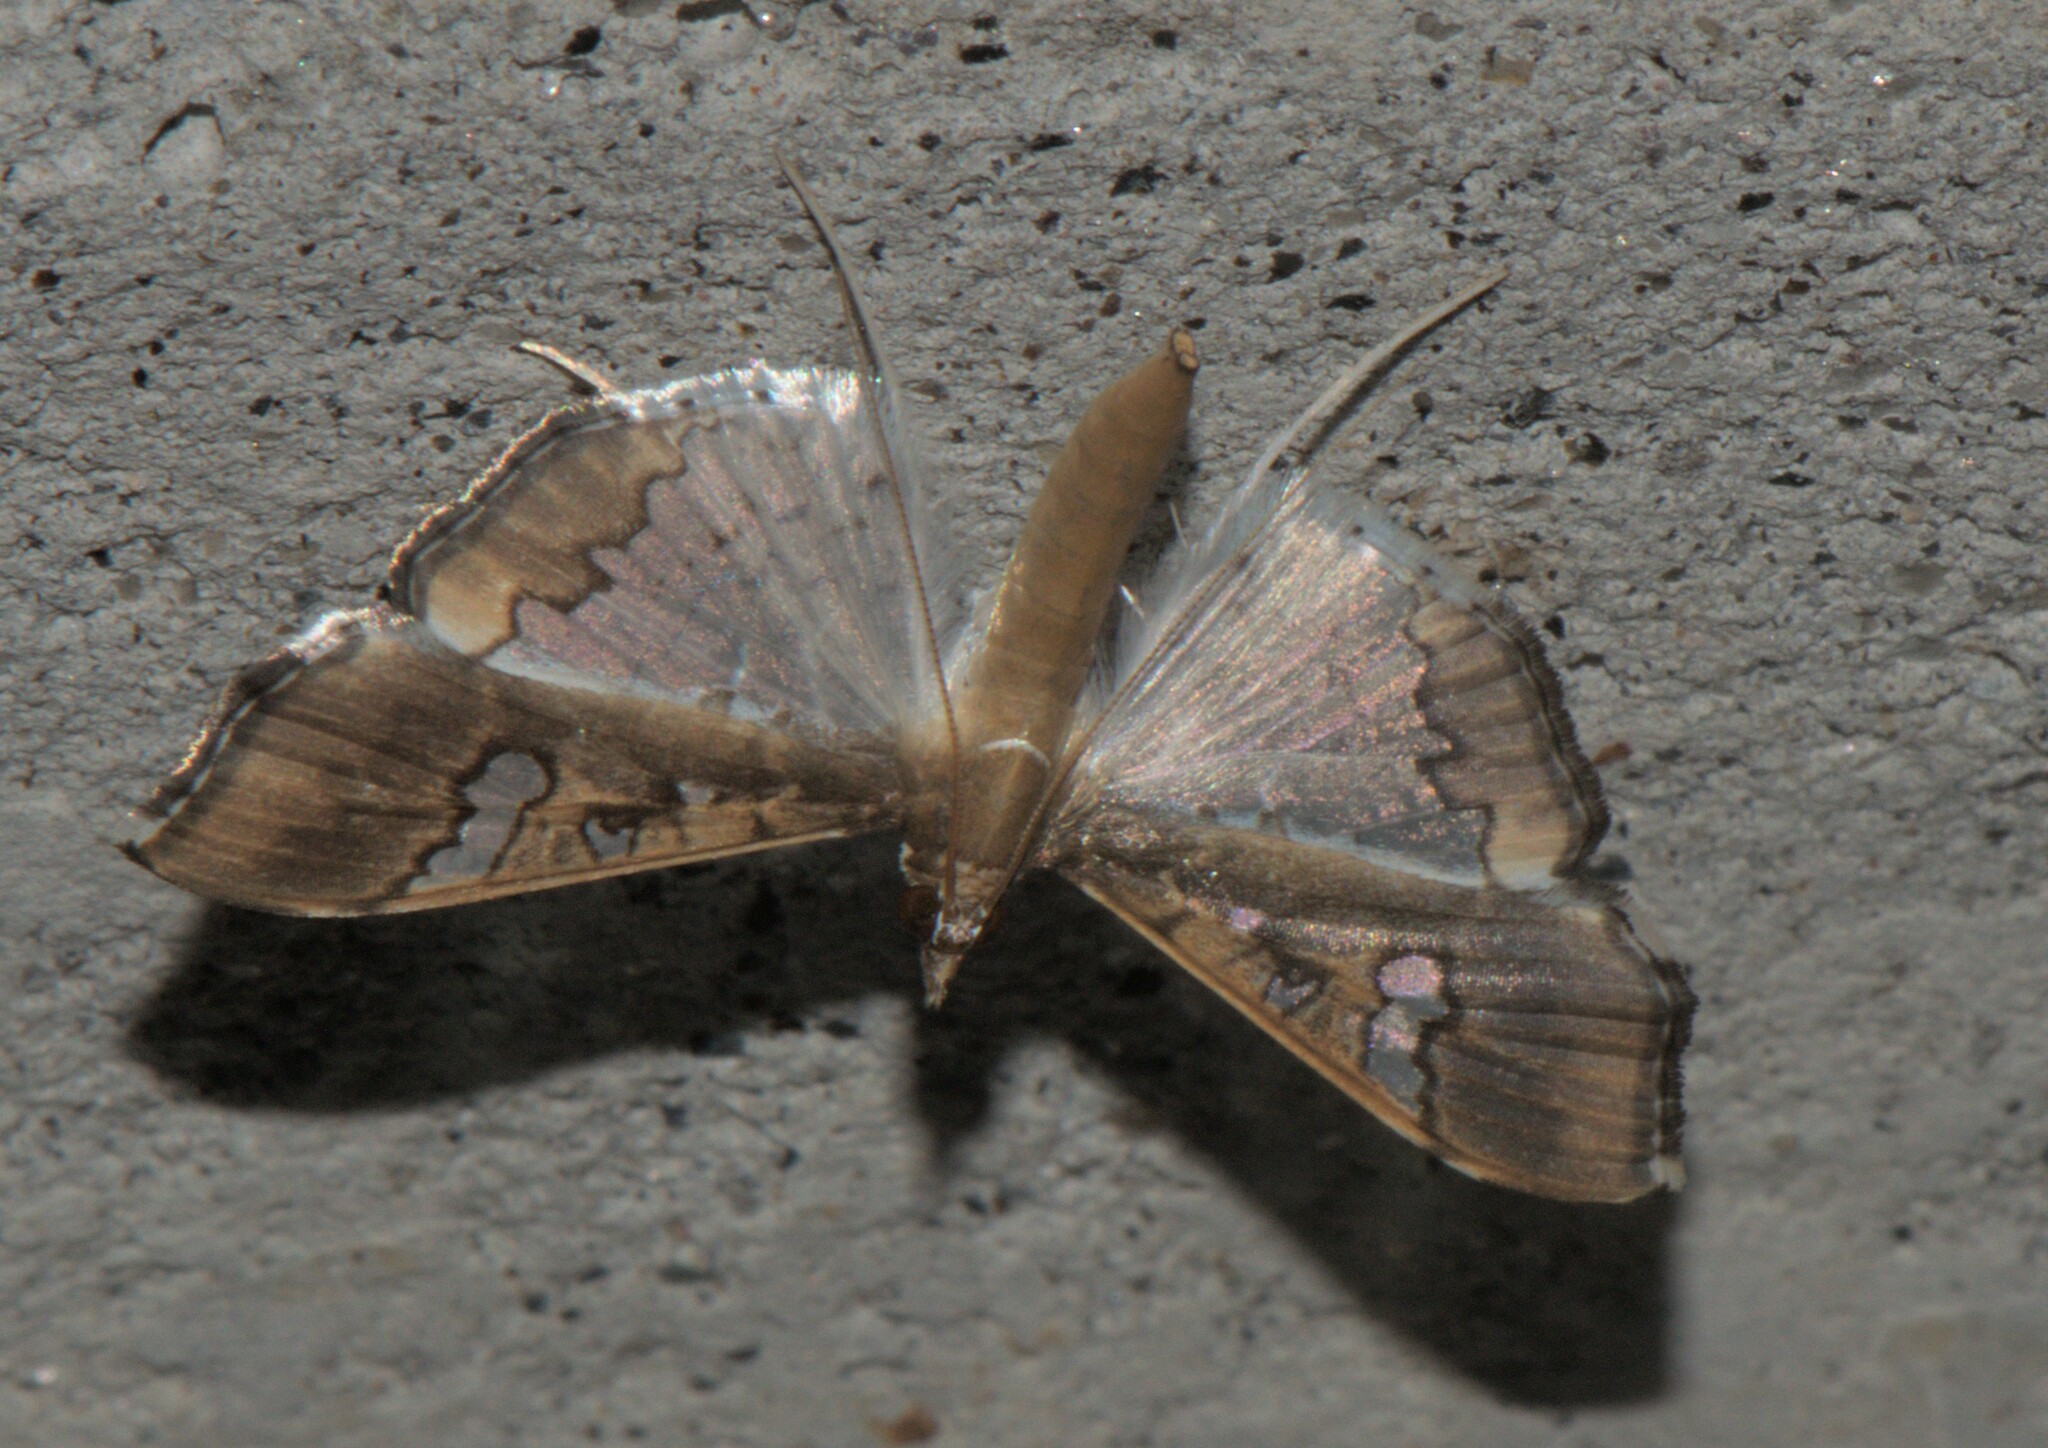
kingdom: Animalia
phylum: Arthropoda
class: Insecta
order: Lepidoptera
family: Crambidae
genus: Maruca
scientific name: Maruca vitrata
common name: Maruca pod borer
